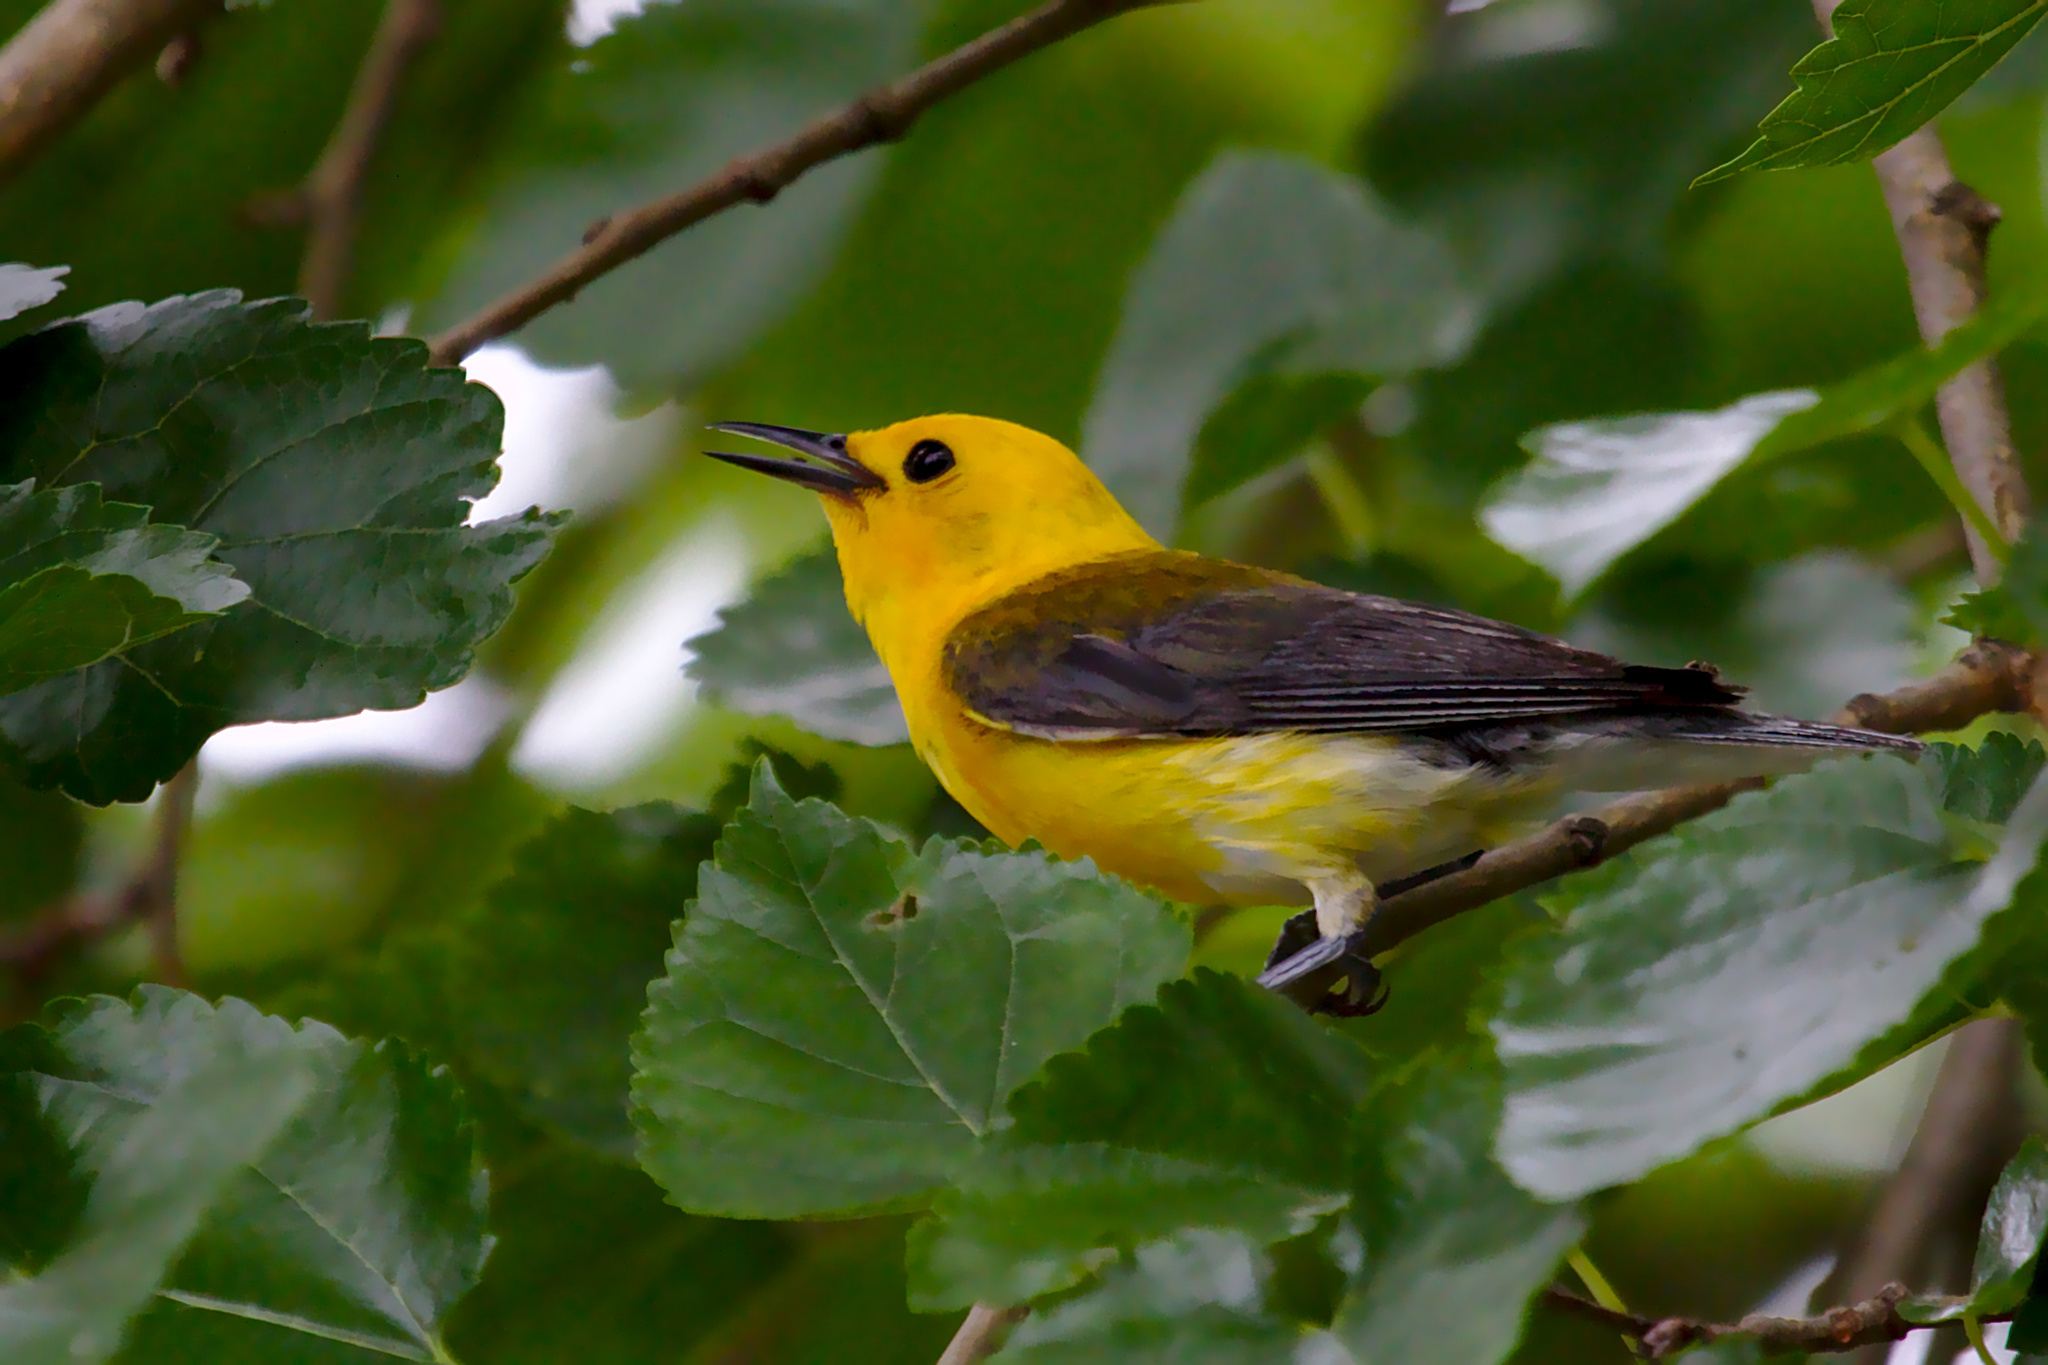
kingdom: Animalia
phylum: Chordata
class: Aves
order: Passeriformes
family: Parulidae
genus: Protonotaria
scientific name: Protonotaria citrea
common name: Prothonotary warbler
